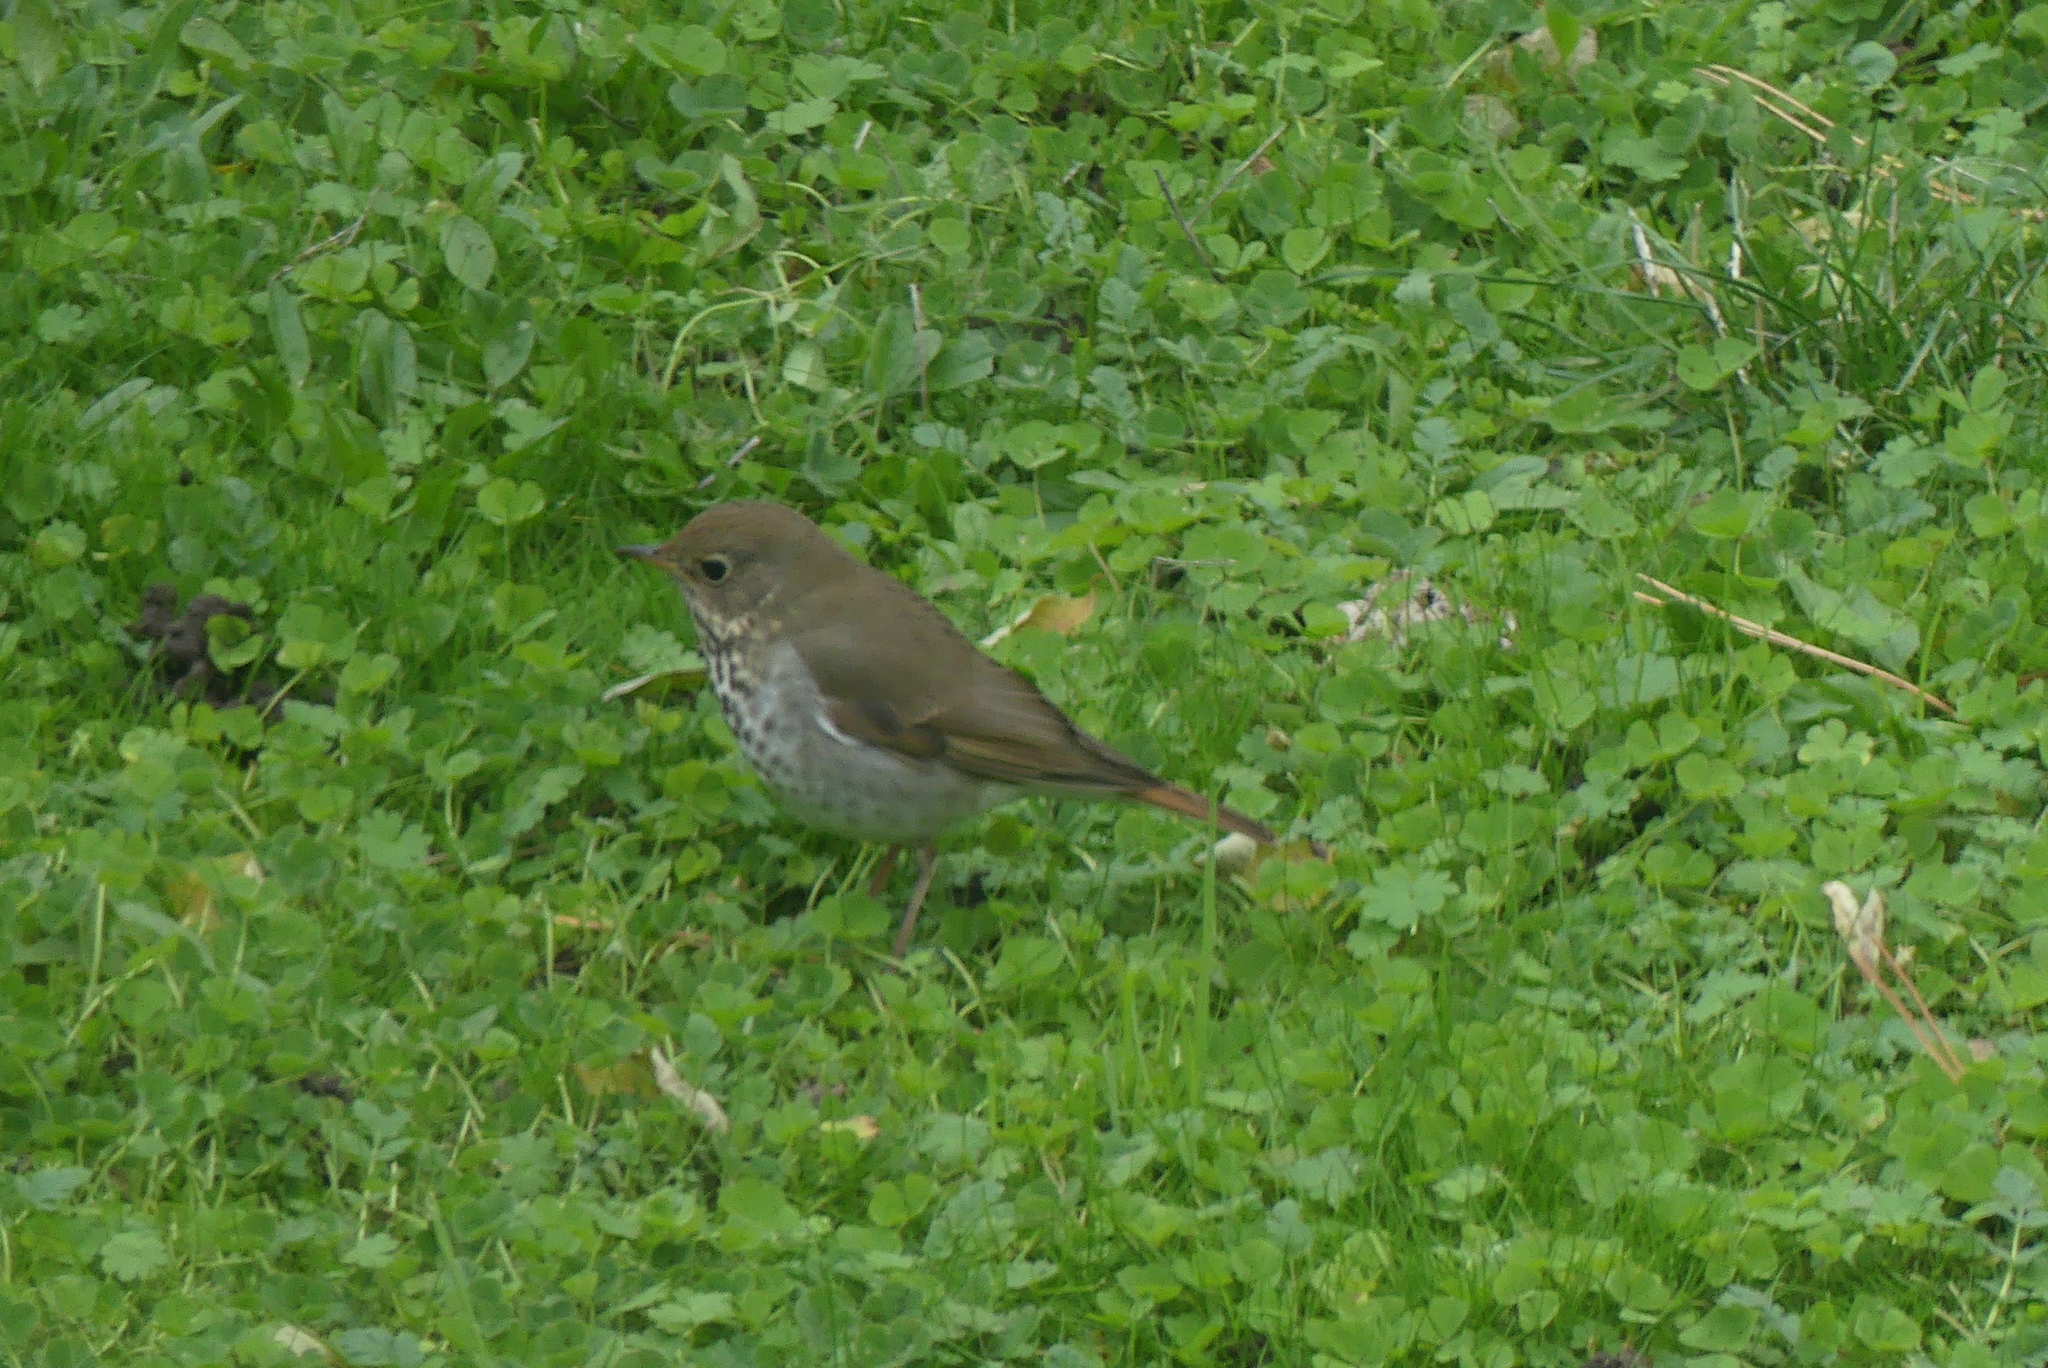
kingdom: Animalia
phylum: Chordata
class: Aves
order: Passeriformes
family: Turdidae
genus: Catharus
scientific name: Catharus guttatus
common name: Hermit thrush
